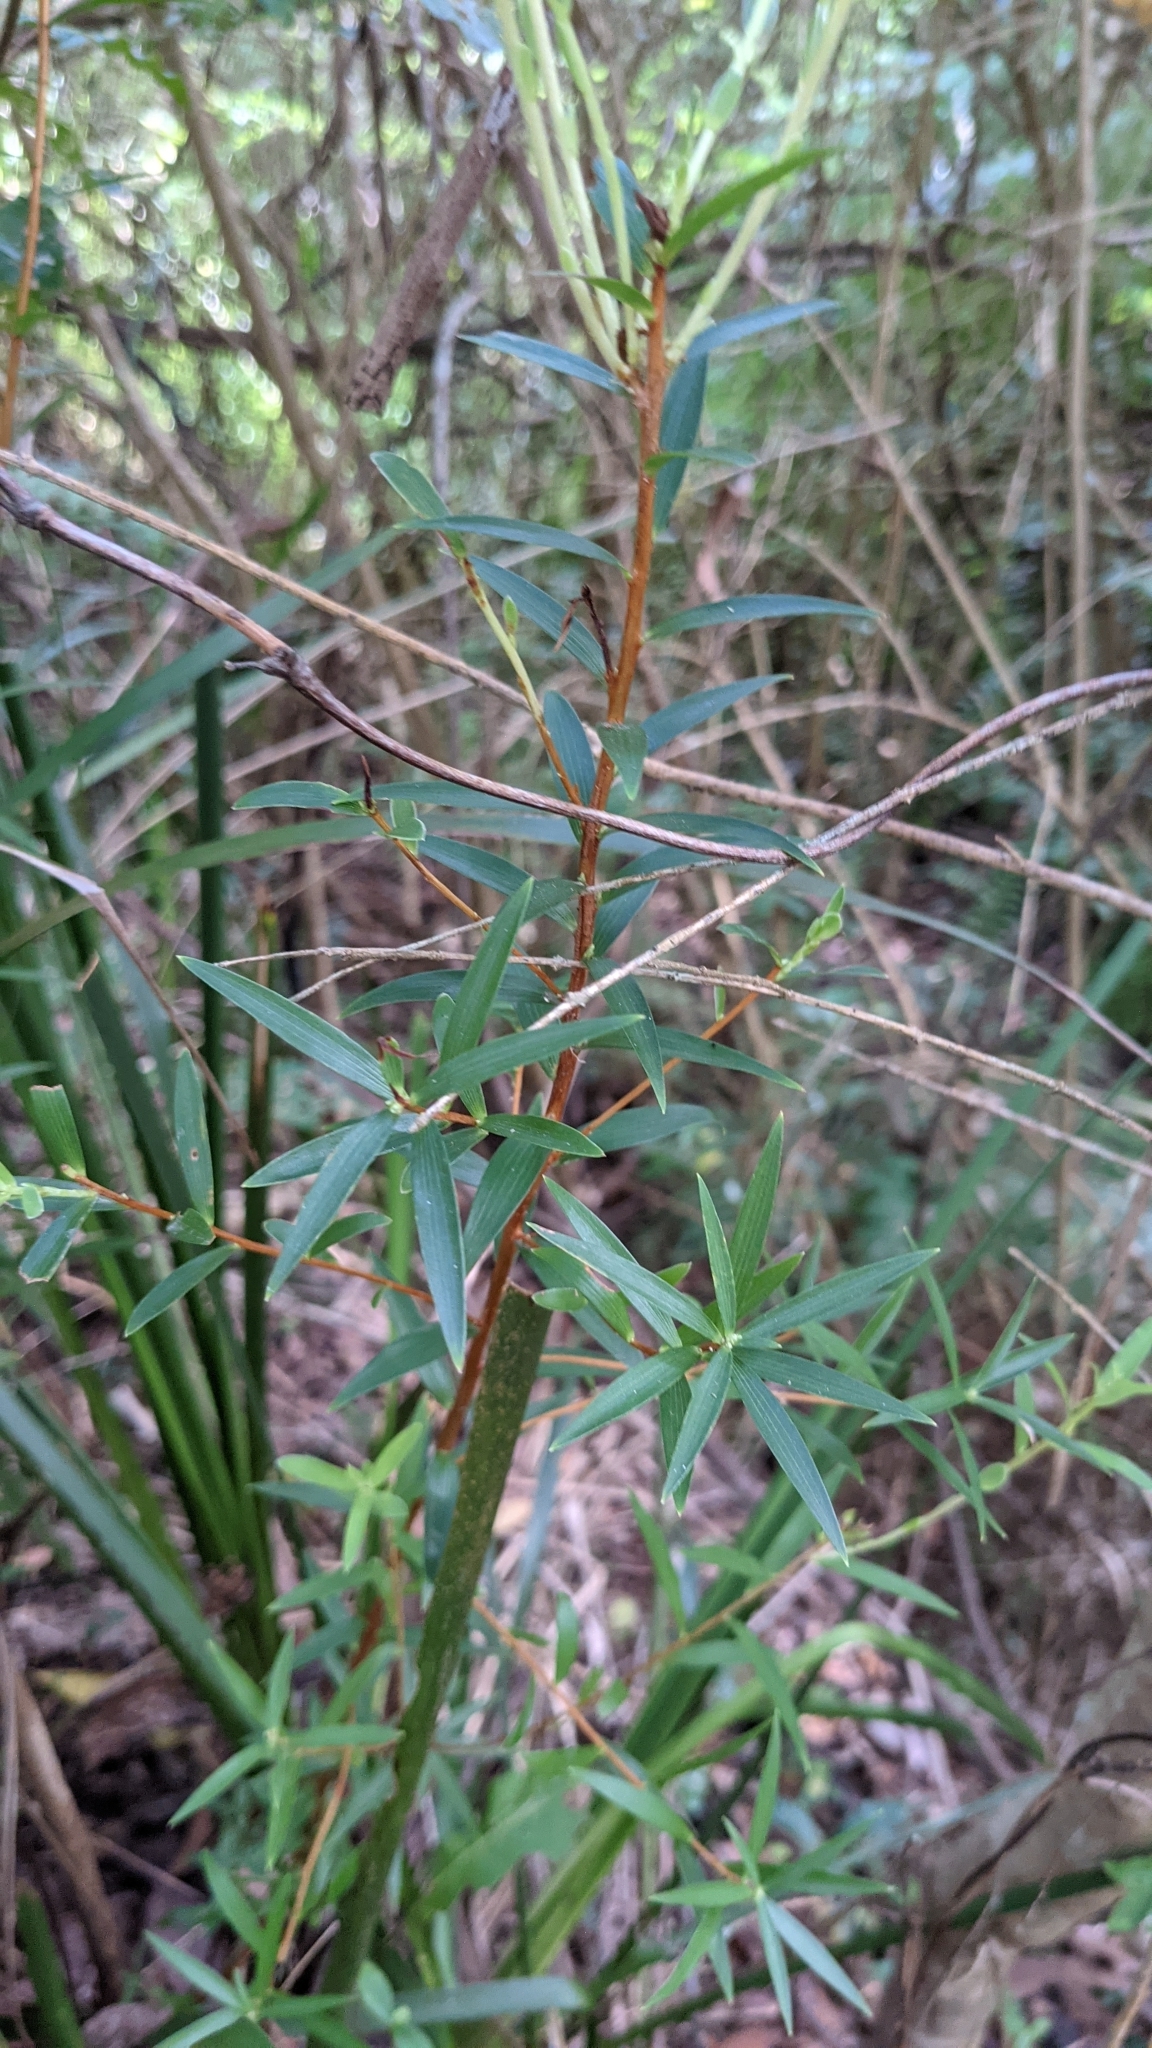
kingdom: Plantae
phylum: Tracheophyta
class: Magnoliopsida
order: Ericales
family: Ericaceae
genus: Leucopogon
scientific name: Leucopogon lanceolatus
